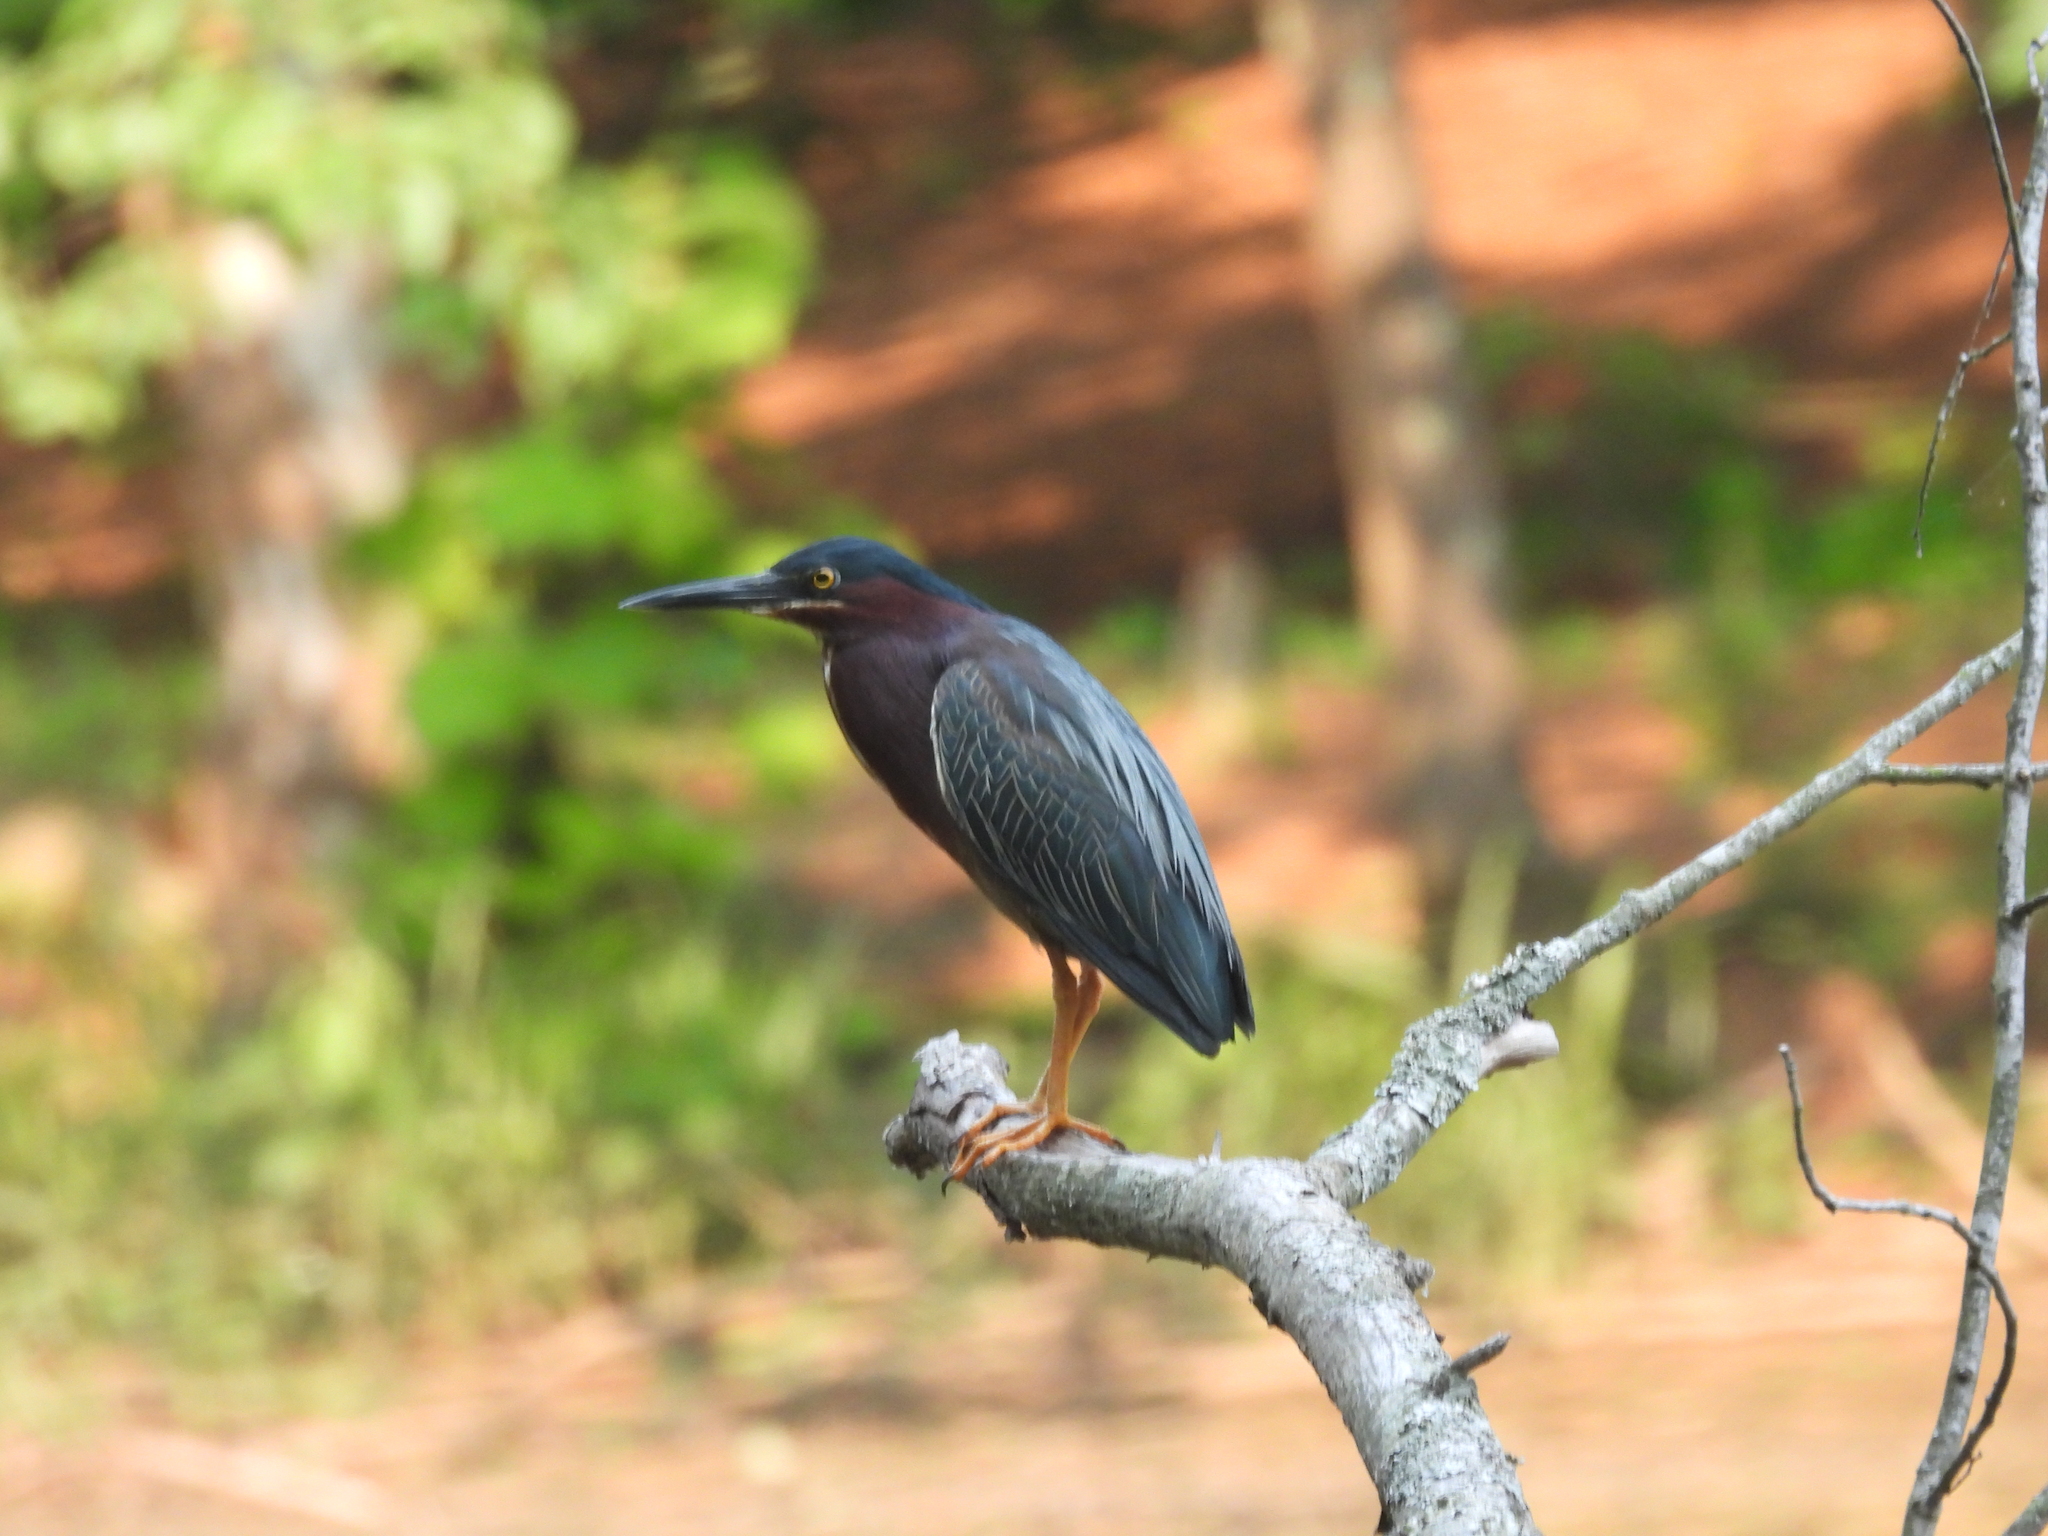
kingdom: Animalia
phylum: Chordata
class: Aves
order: Pelecaniformes
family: Ardeidae
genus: Butorides
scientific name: Butorides virescens
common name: Green heron
